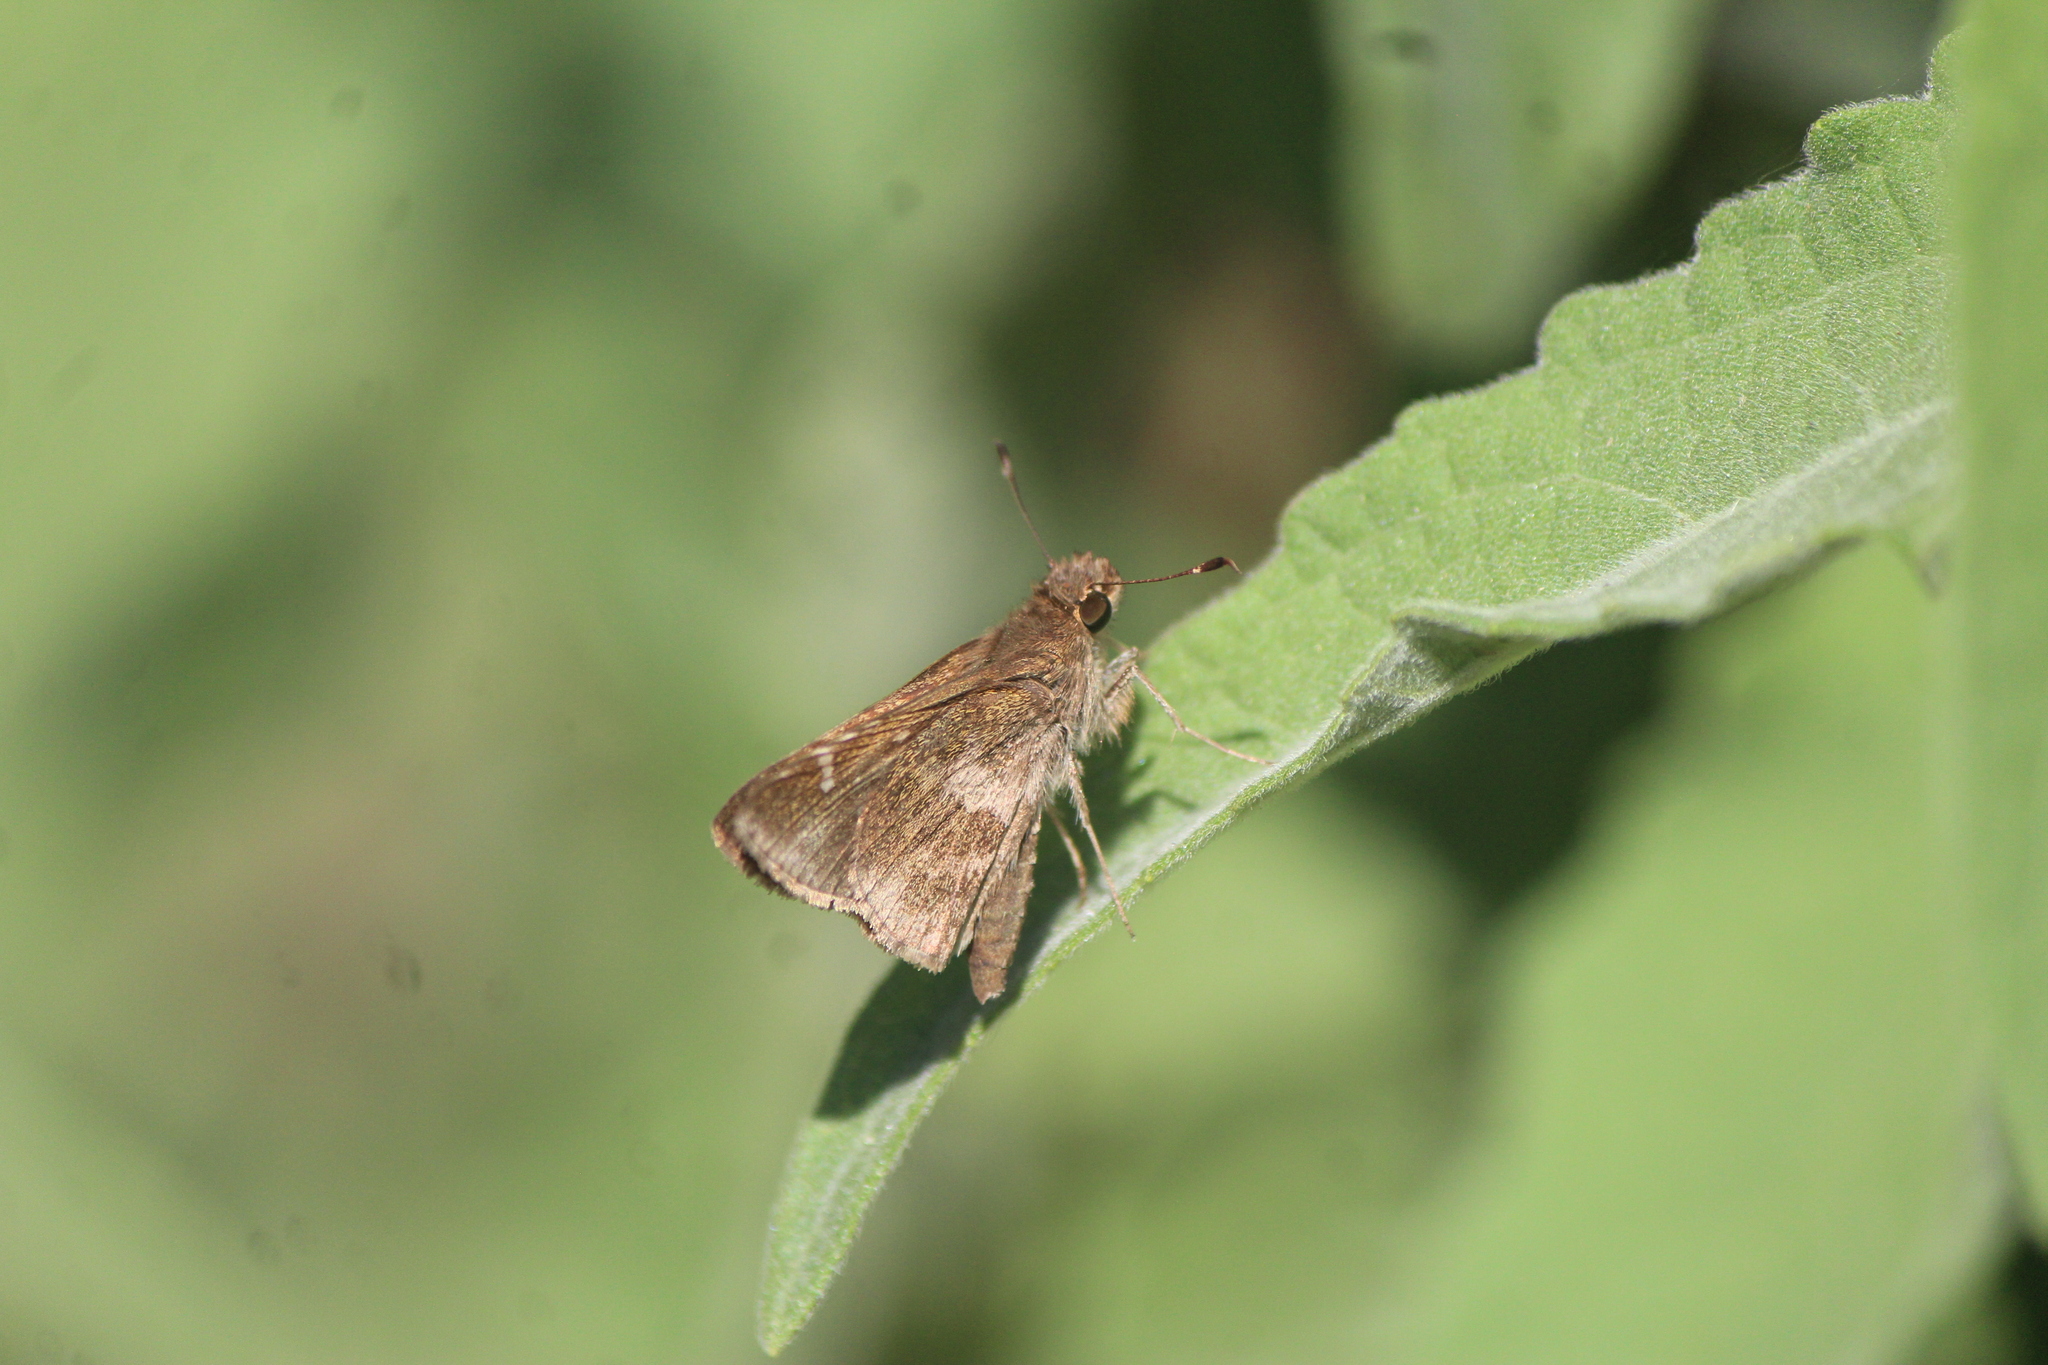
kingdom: Animalia
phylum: Arthropoda
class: Insecta
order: Lepidoptera
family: Hesperiidae
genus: Lerema
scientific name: Lerema accius
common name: Clouded skipper
